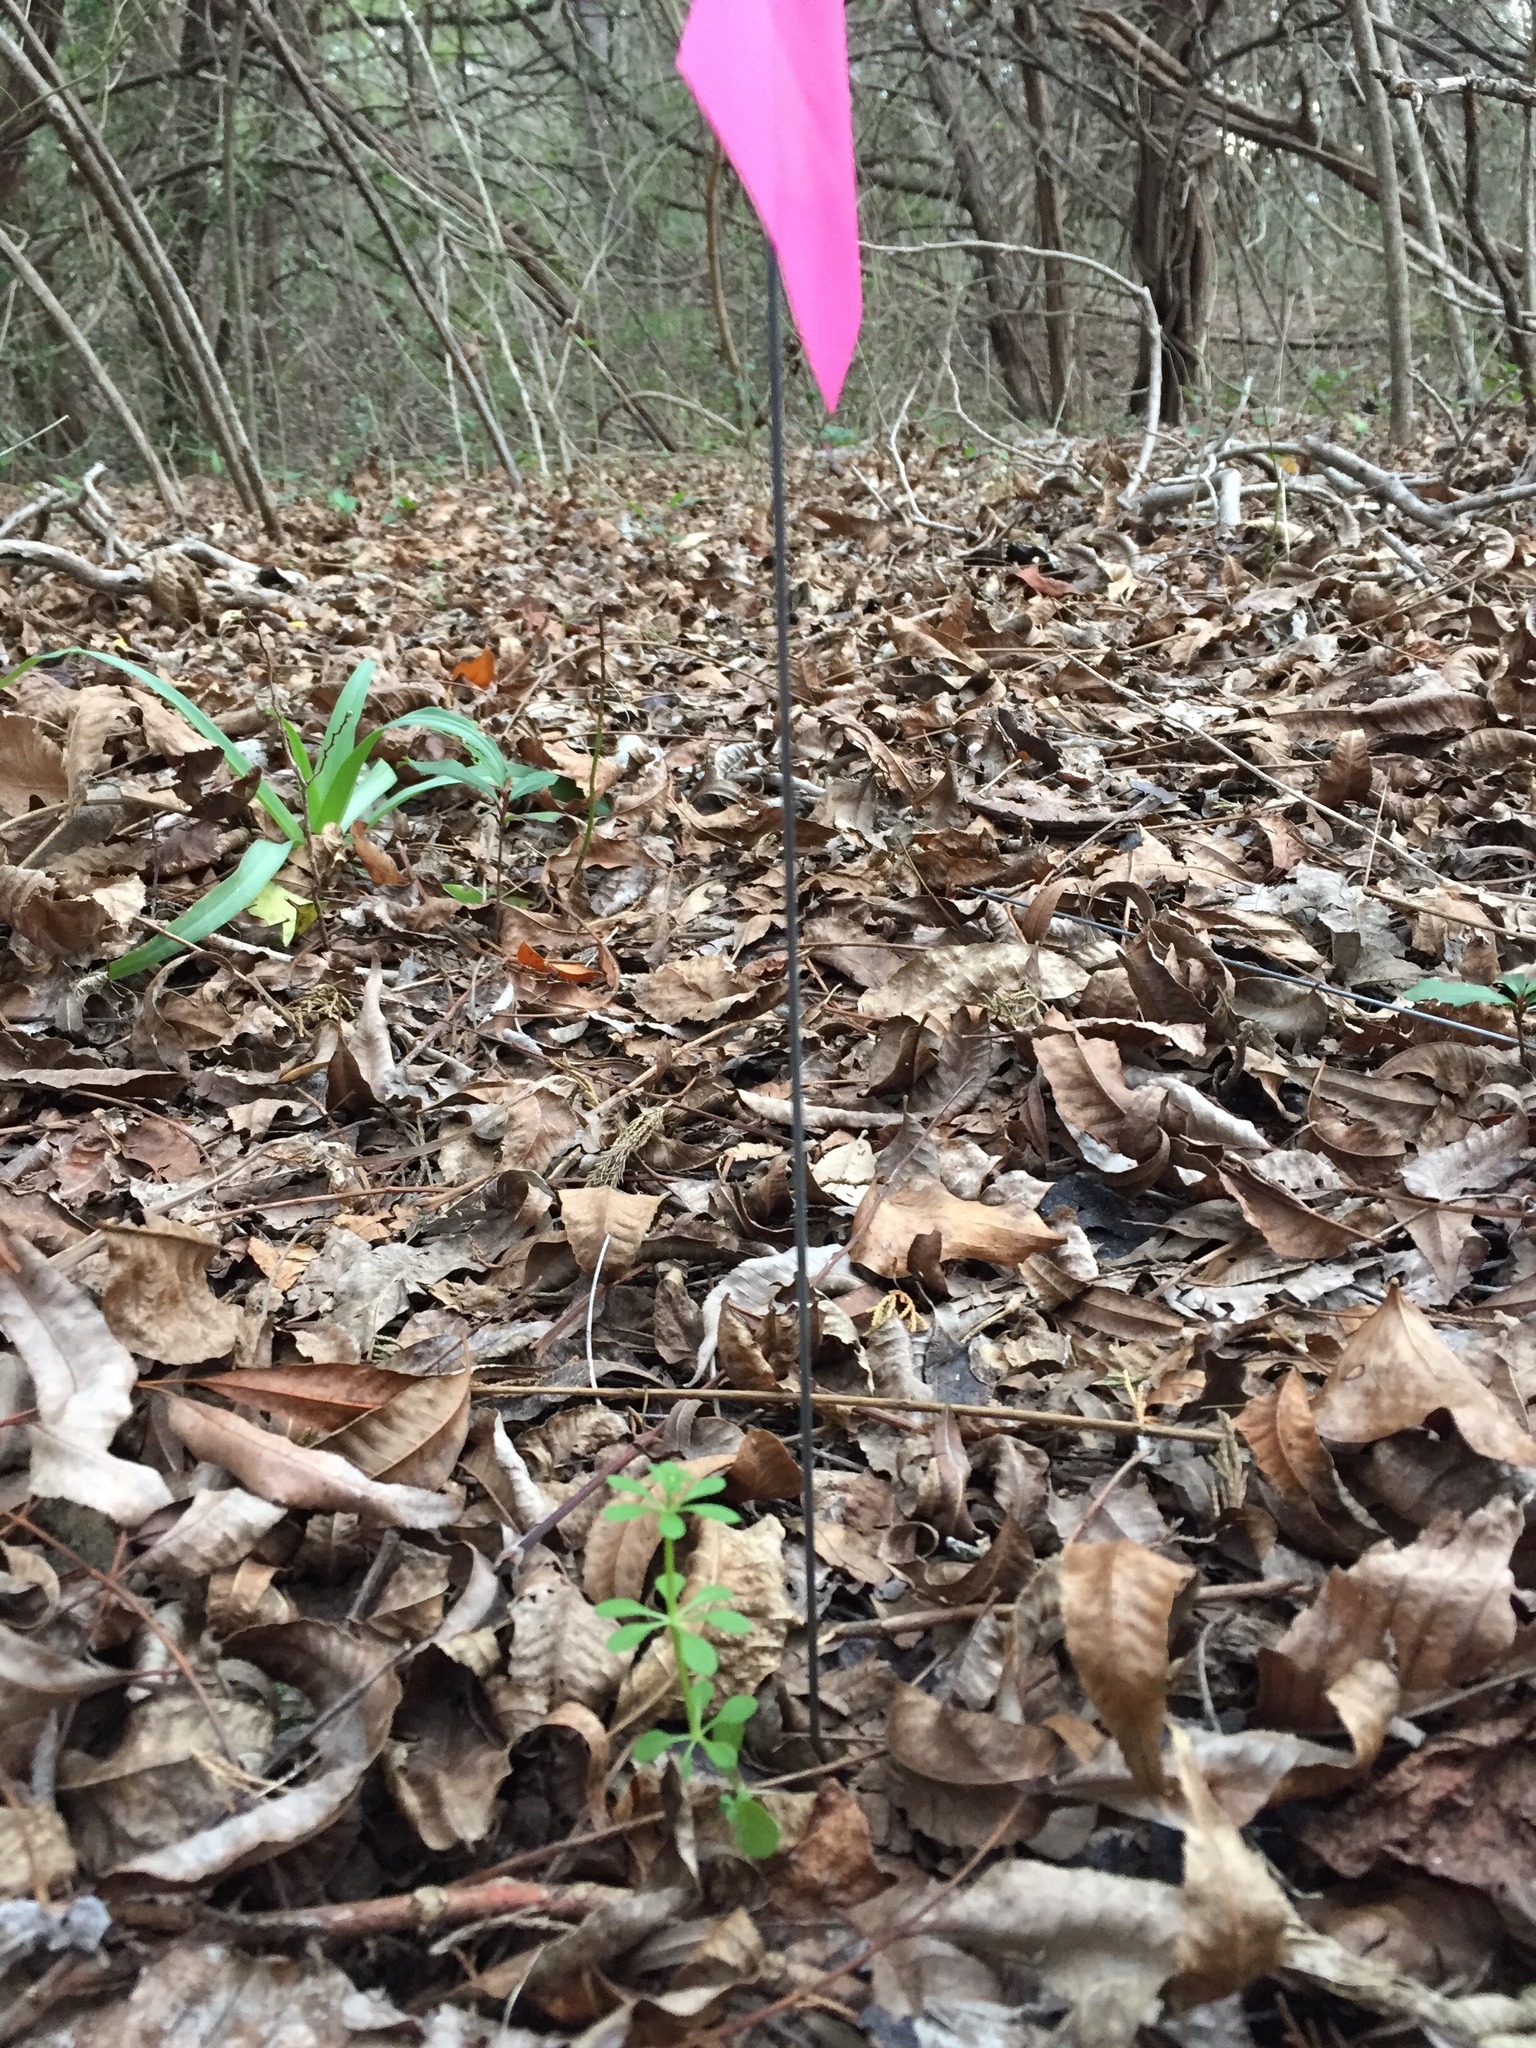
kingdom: Plantae
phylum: Tracheophyta
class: Magnoliopsida
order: Gentianales
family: Rubiaceae
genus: Galium
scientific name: Galium aparine
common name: Cleavers
